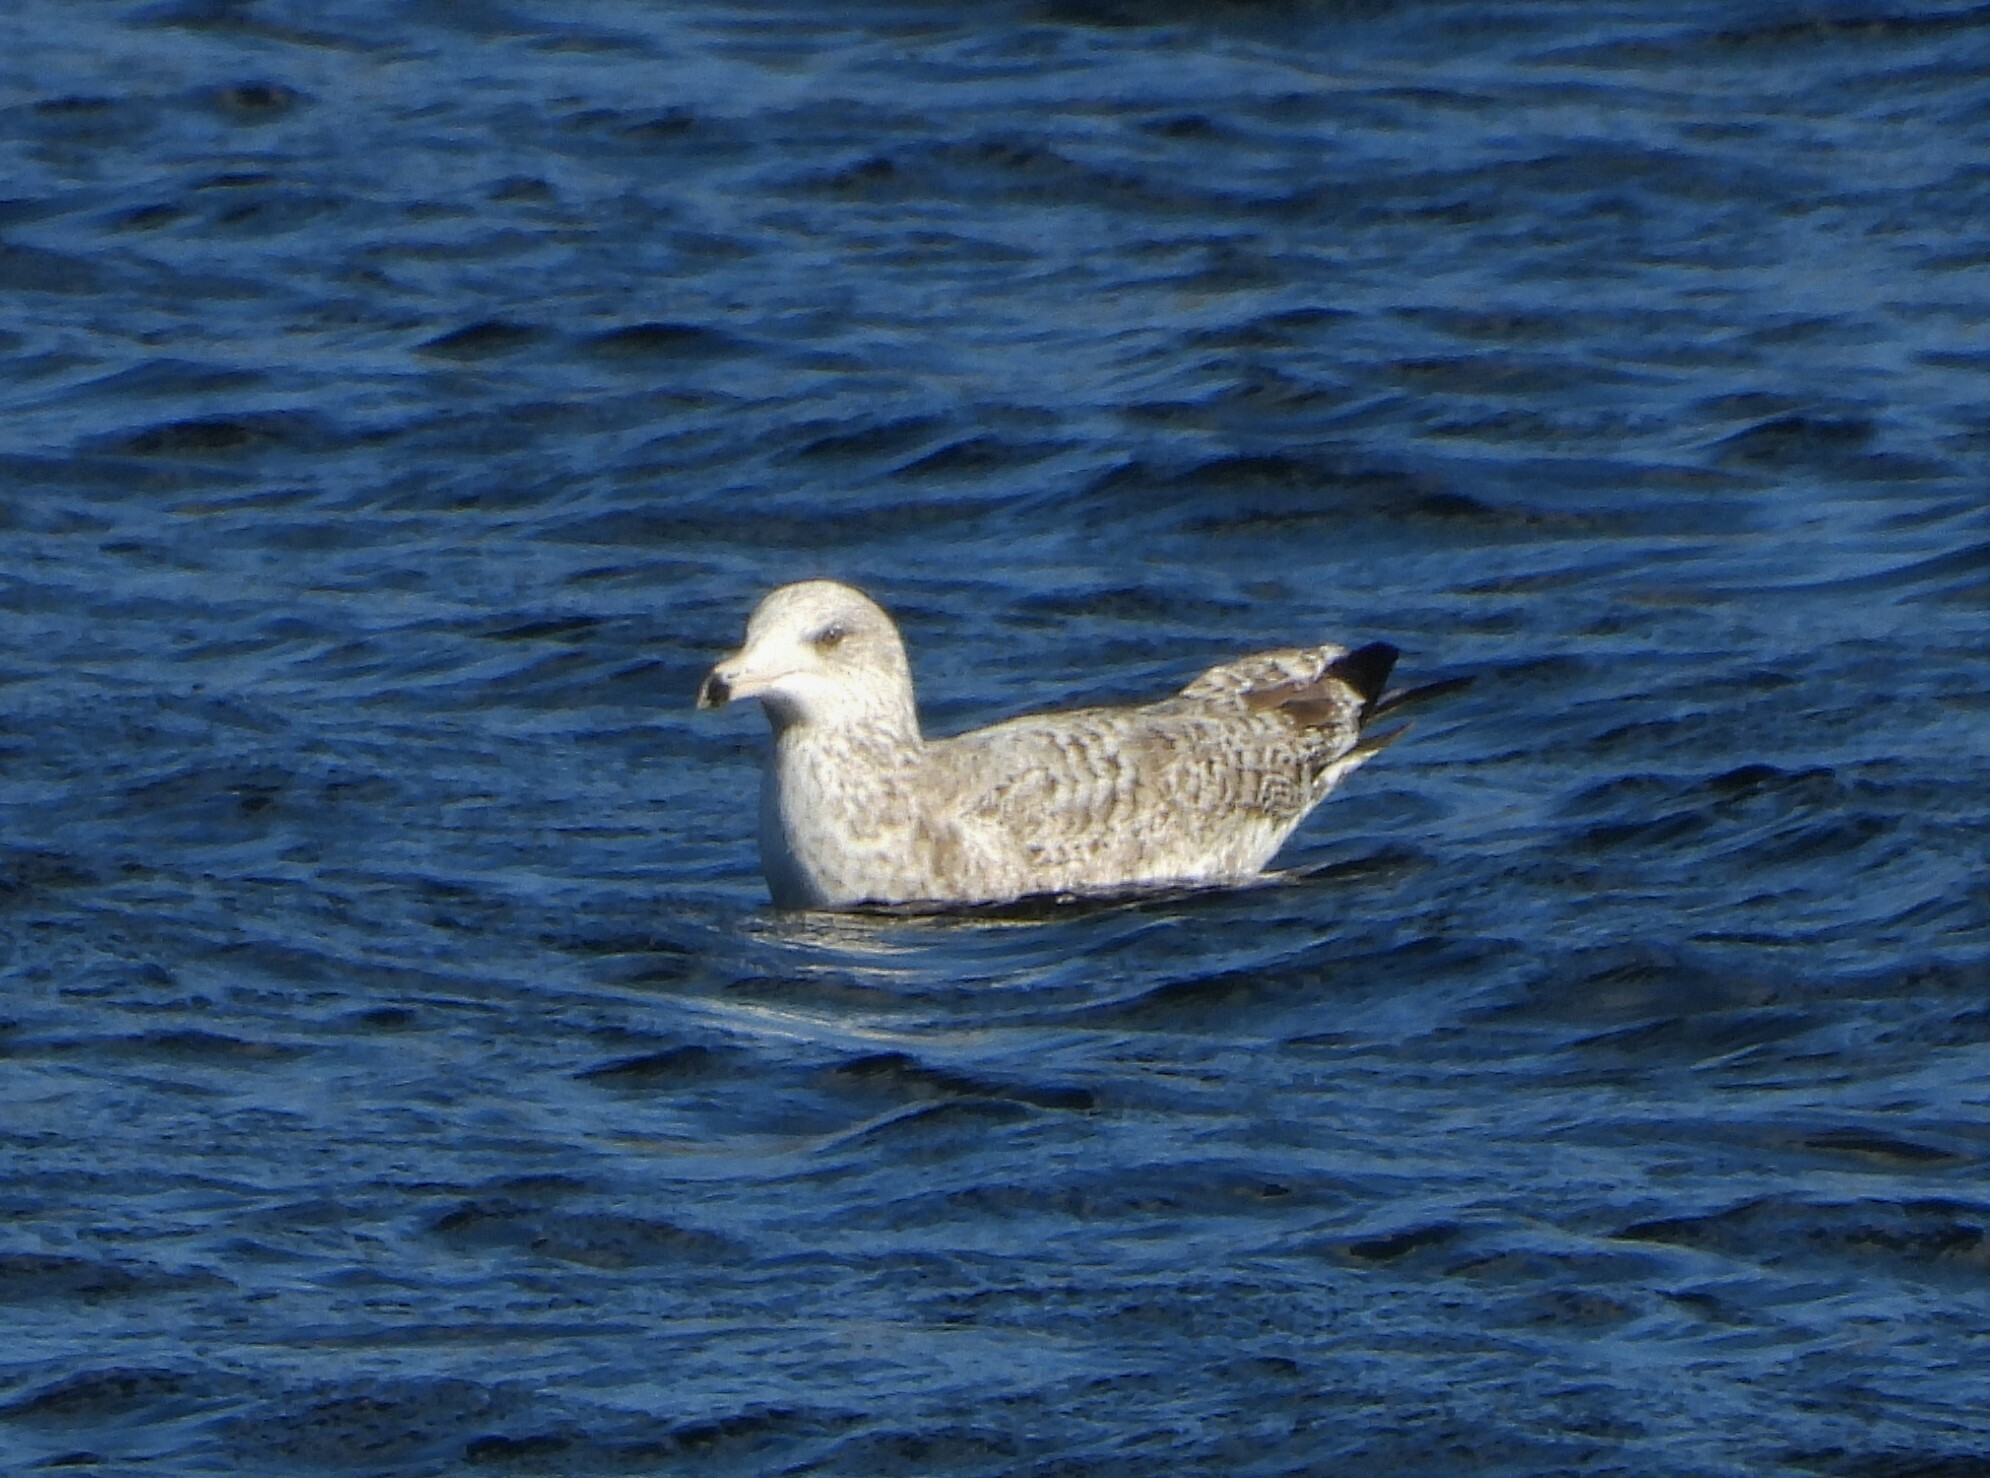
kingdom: Animalia
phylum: Chordata
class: Aves
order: Charadriiformes
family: Laridae
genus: Larus
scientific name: Larus argentatus
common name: Herring gull
